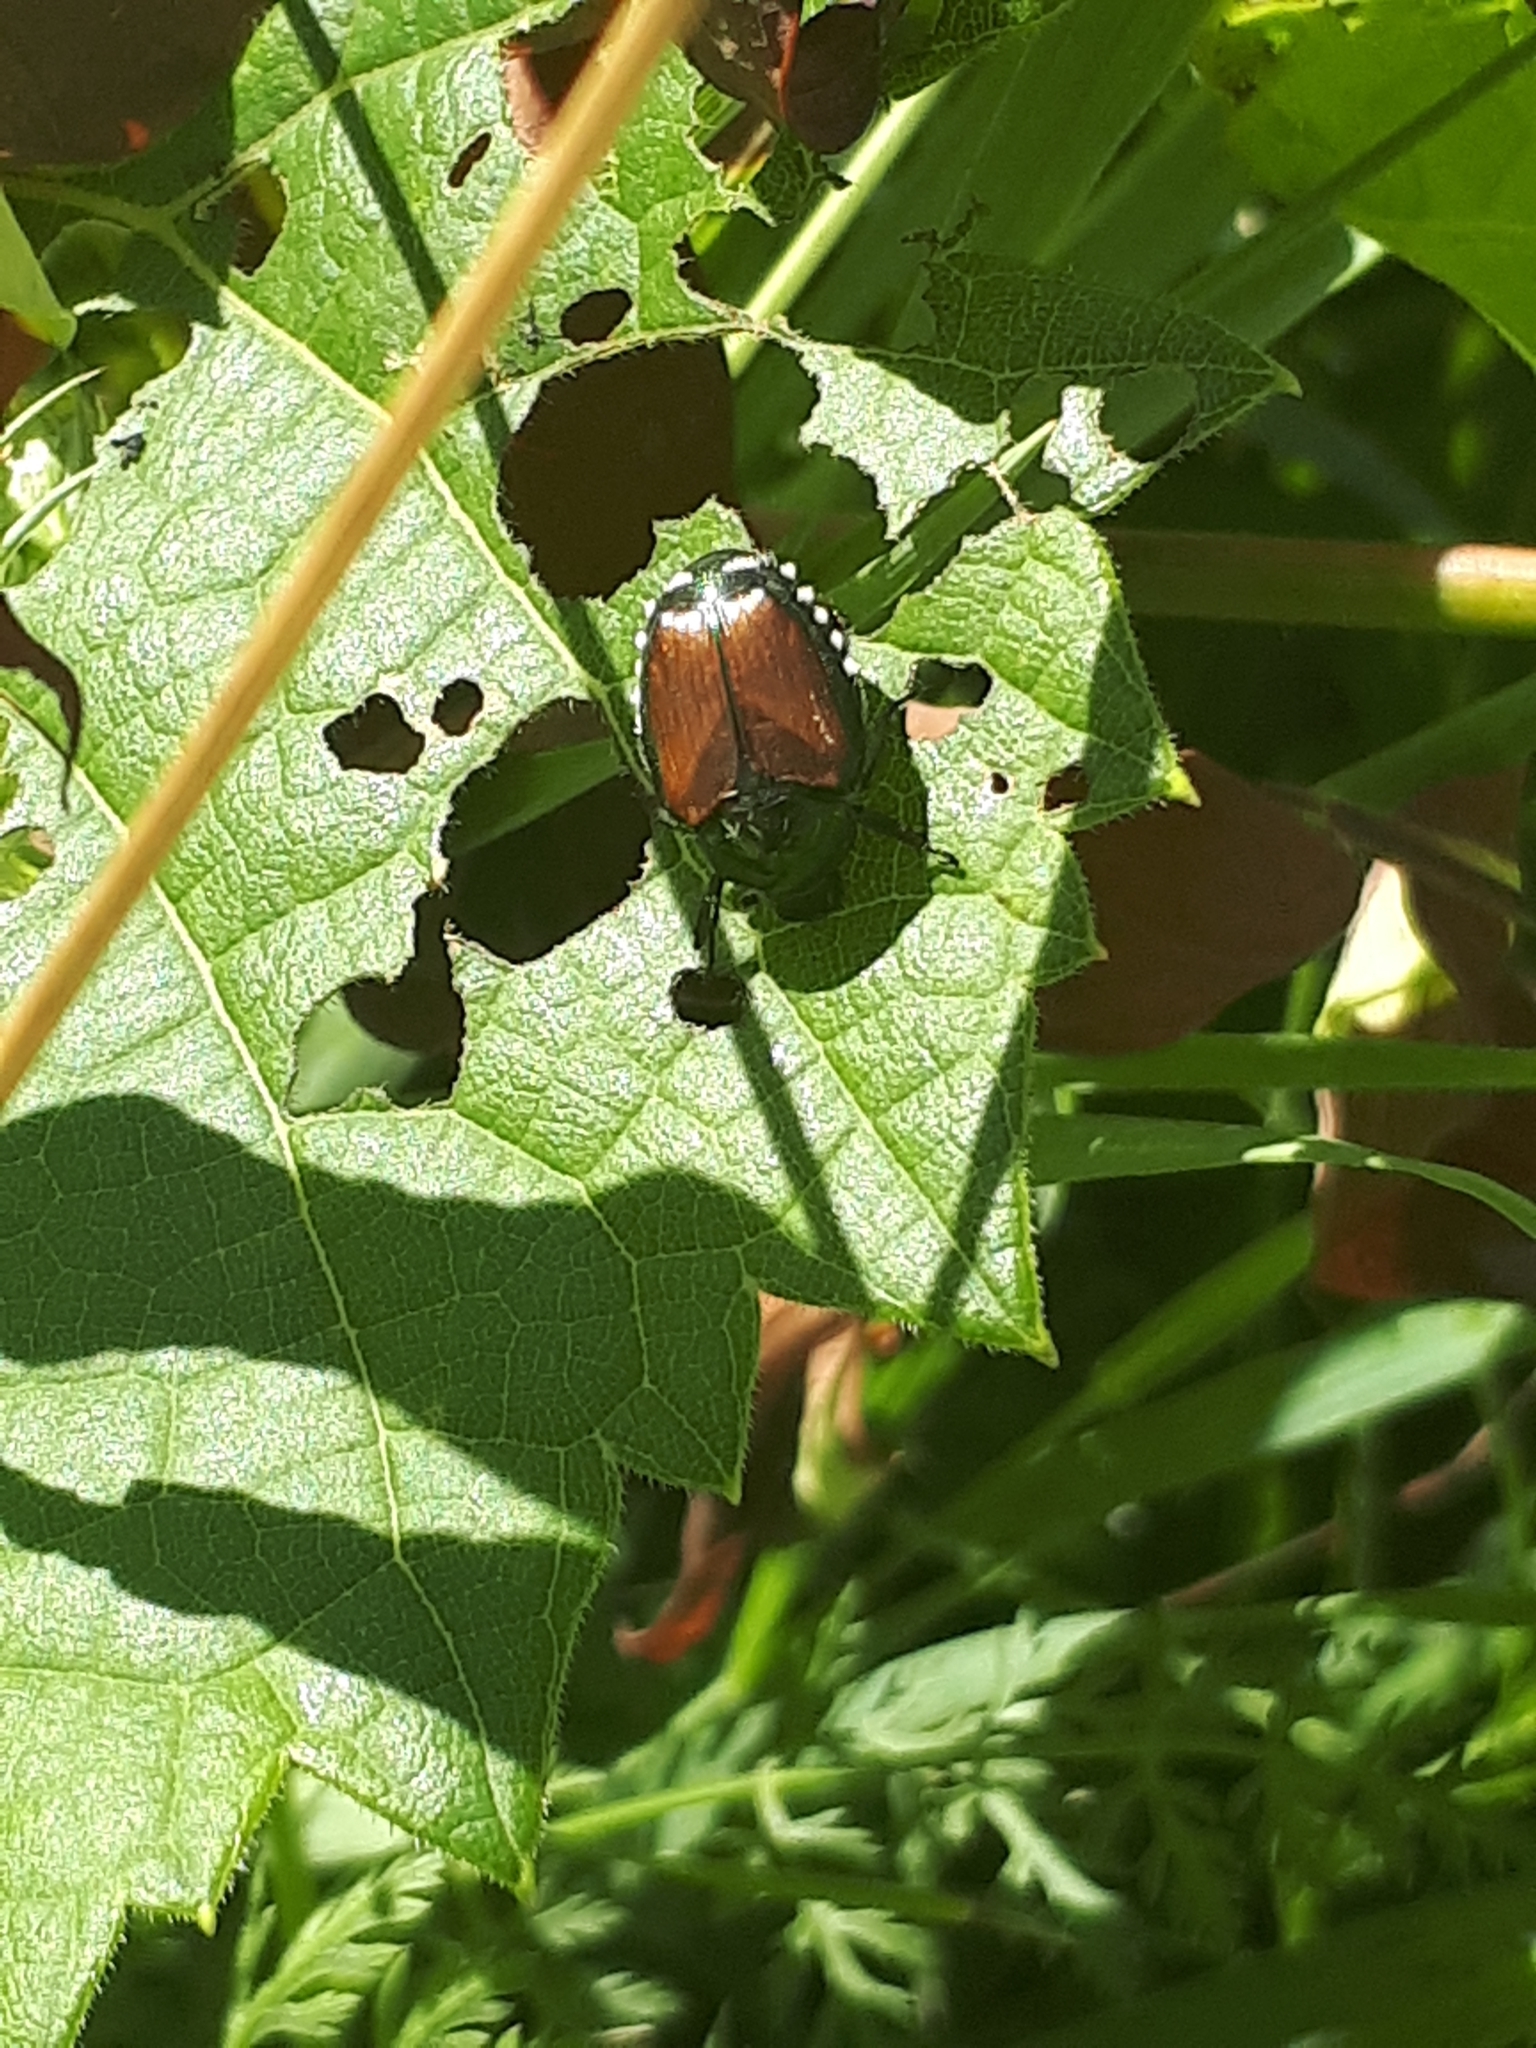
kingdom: Animalia
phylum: Arthropoda
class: Insecta
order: Coleoptera
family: Scarabaeidae
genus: Popillia
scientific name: Popillia japonica
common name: Japanese beetle
